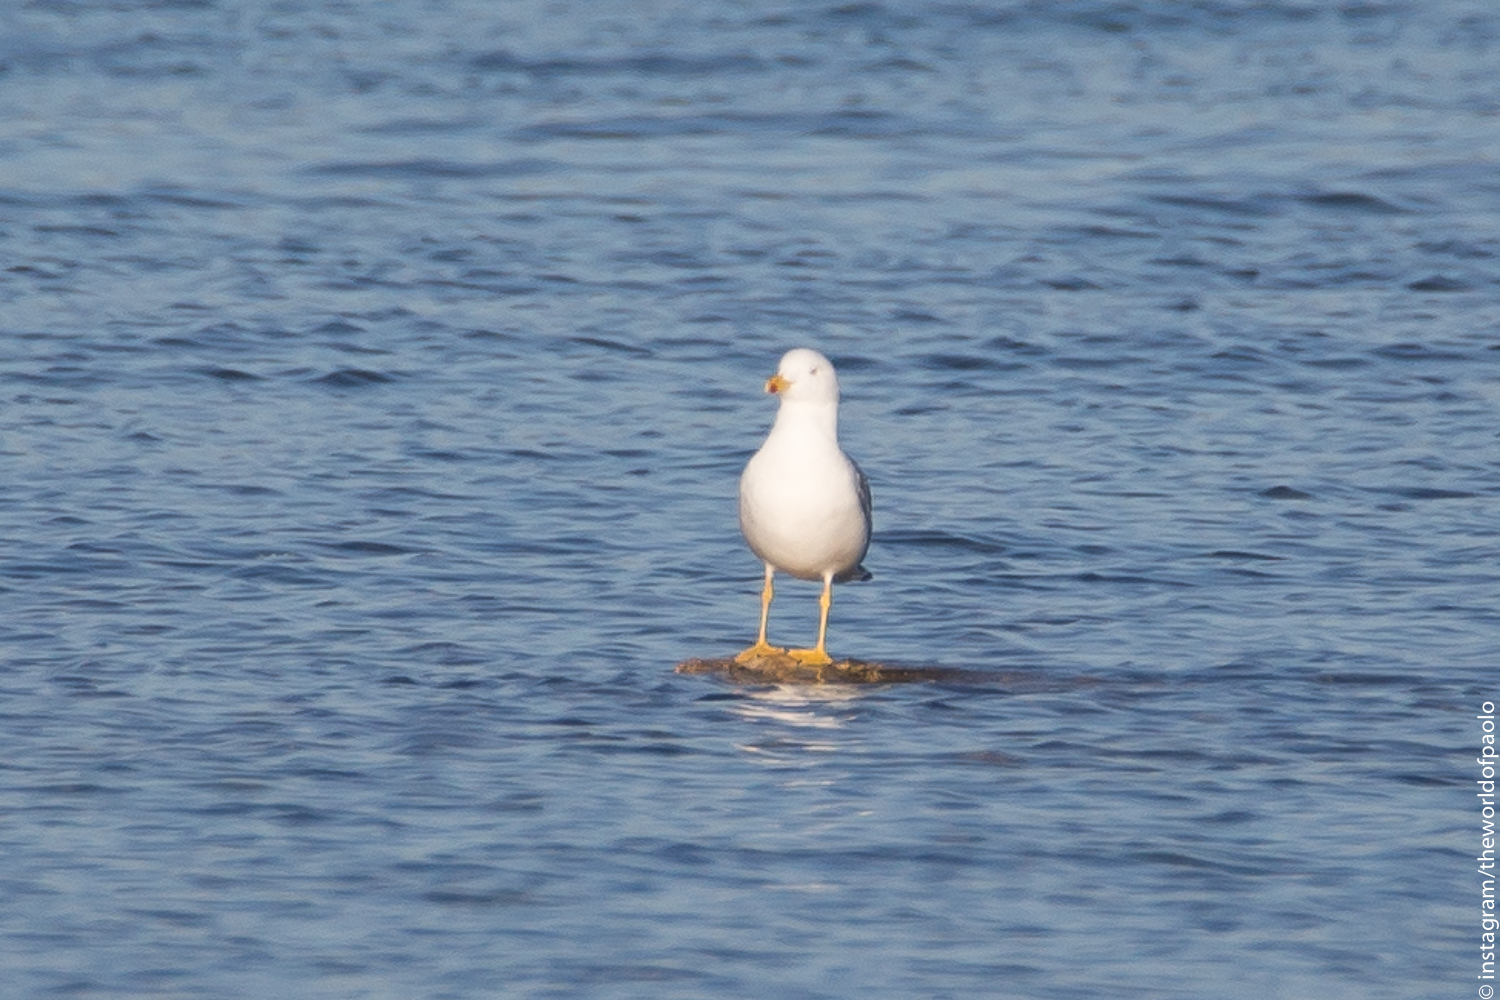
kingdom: Animalia
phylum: Chordata
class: Aves
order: Charadriiformes
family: Laridae
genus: Larus
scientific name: Larus michahellis
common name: Yellow-legged gull
